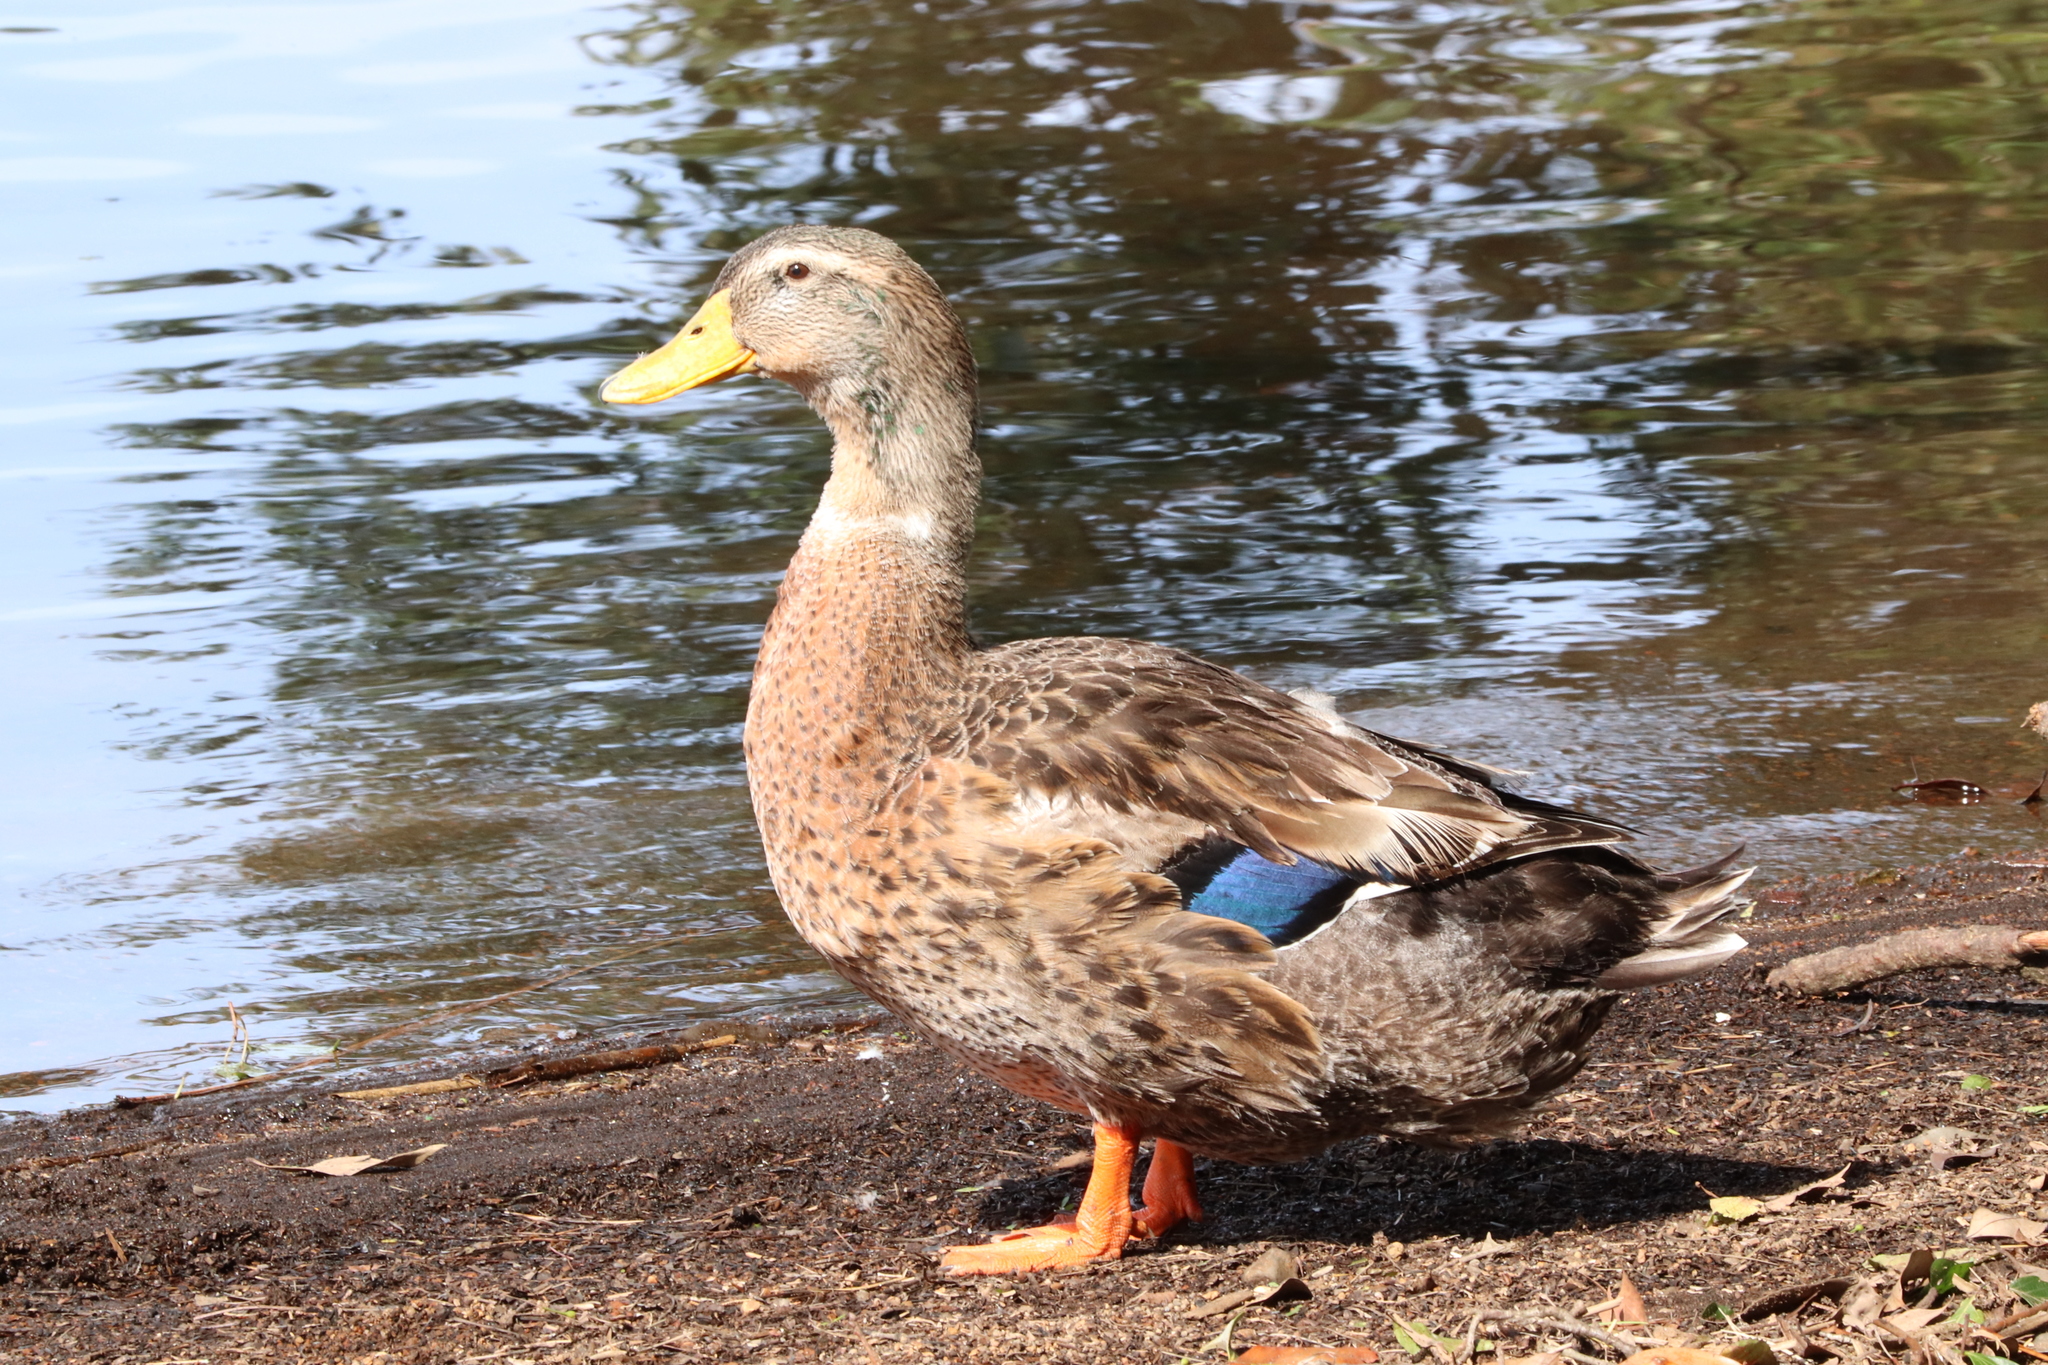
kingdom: Animalia
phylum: Chordata
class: Aves
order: Anseriformes
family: Anatidae
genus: Anas
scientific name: Anas platyrhynchos
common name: Mallard
